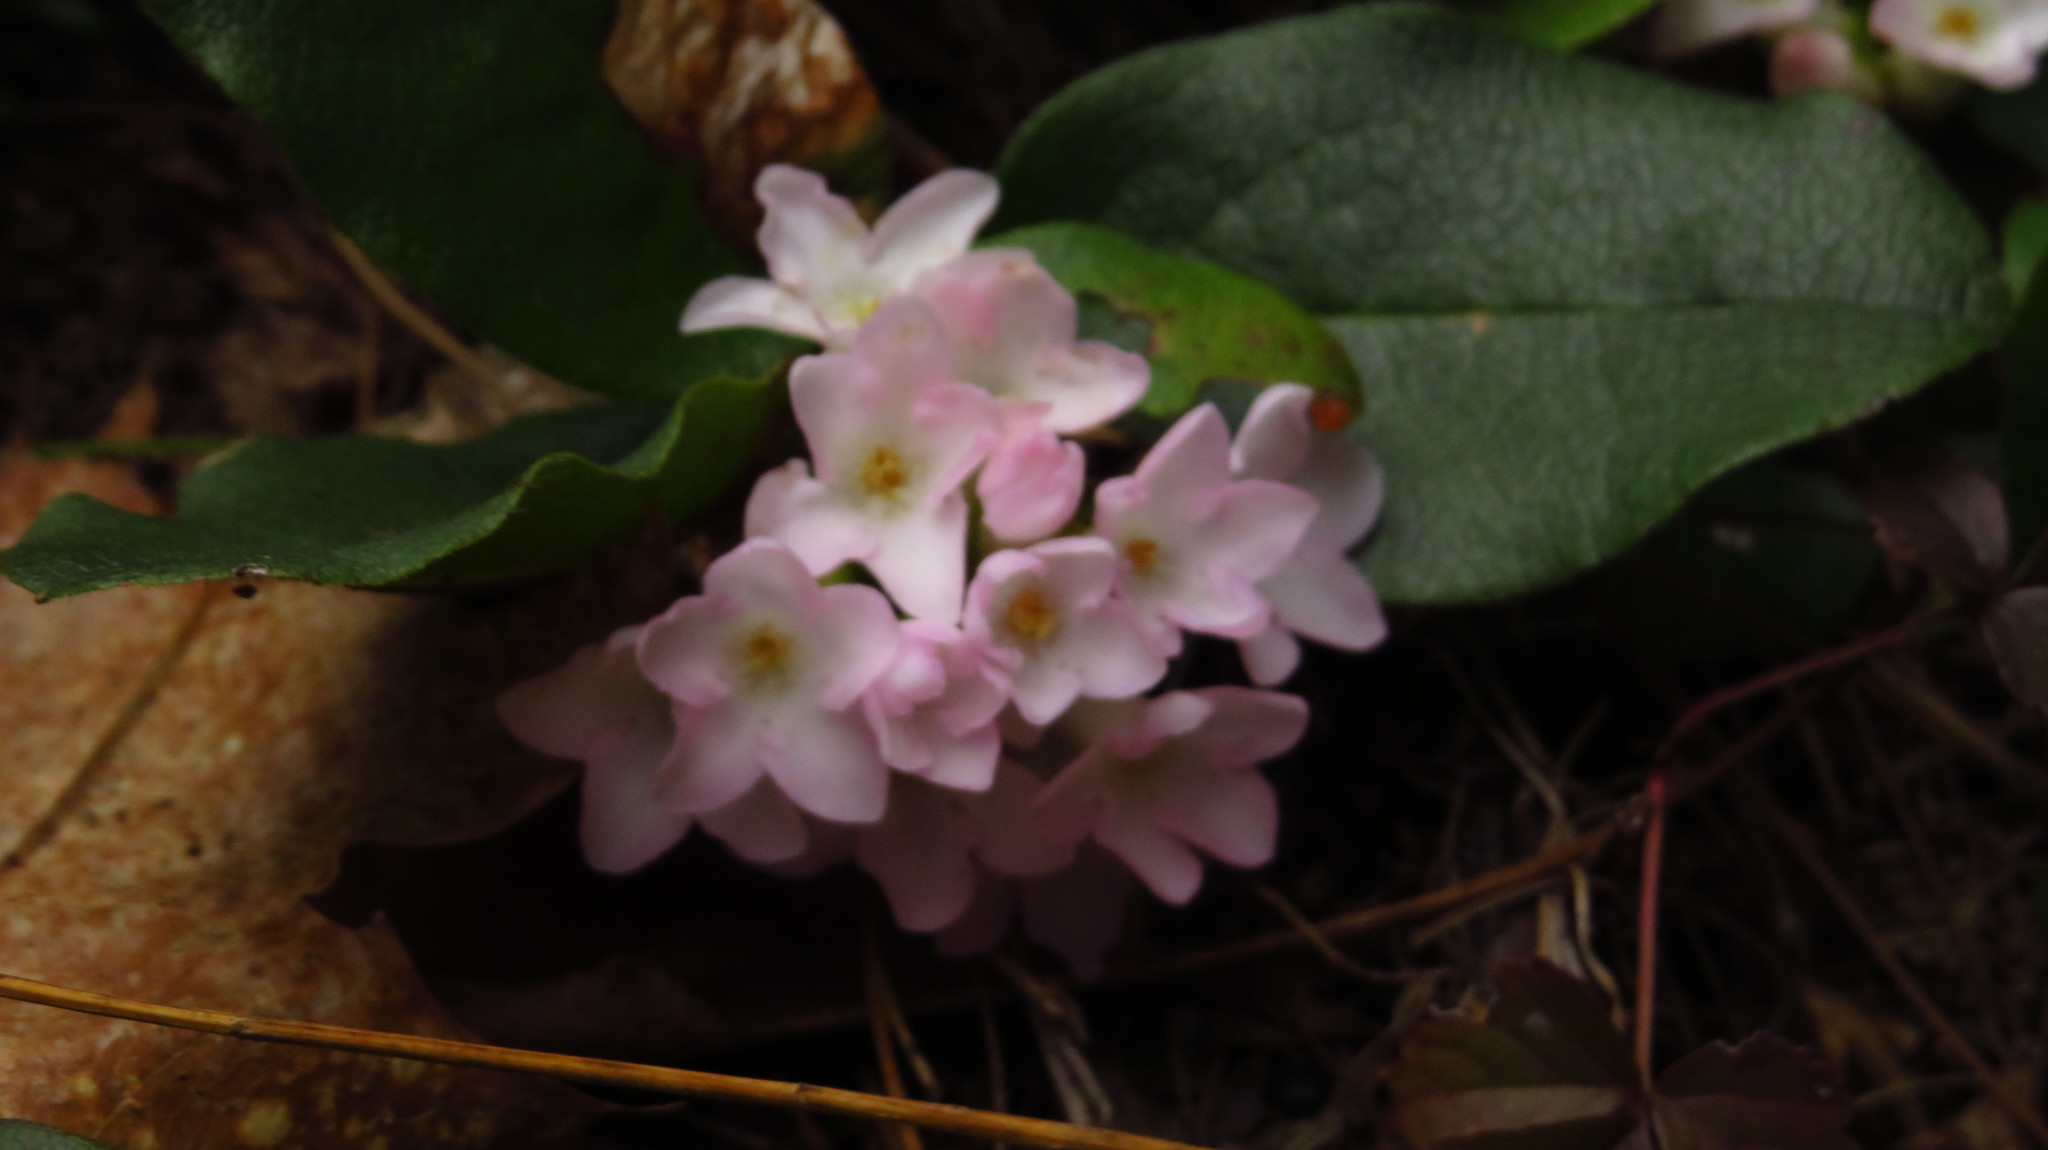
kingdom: Plantae
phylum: Tracheophyta
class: Magnoliopsida
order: Ericales
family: Ericaceae
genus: Epigaea
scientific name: Epigaea repens
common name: Gravelroot
